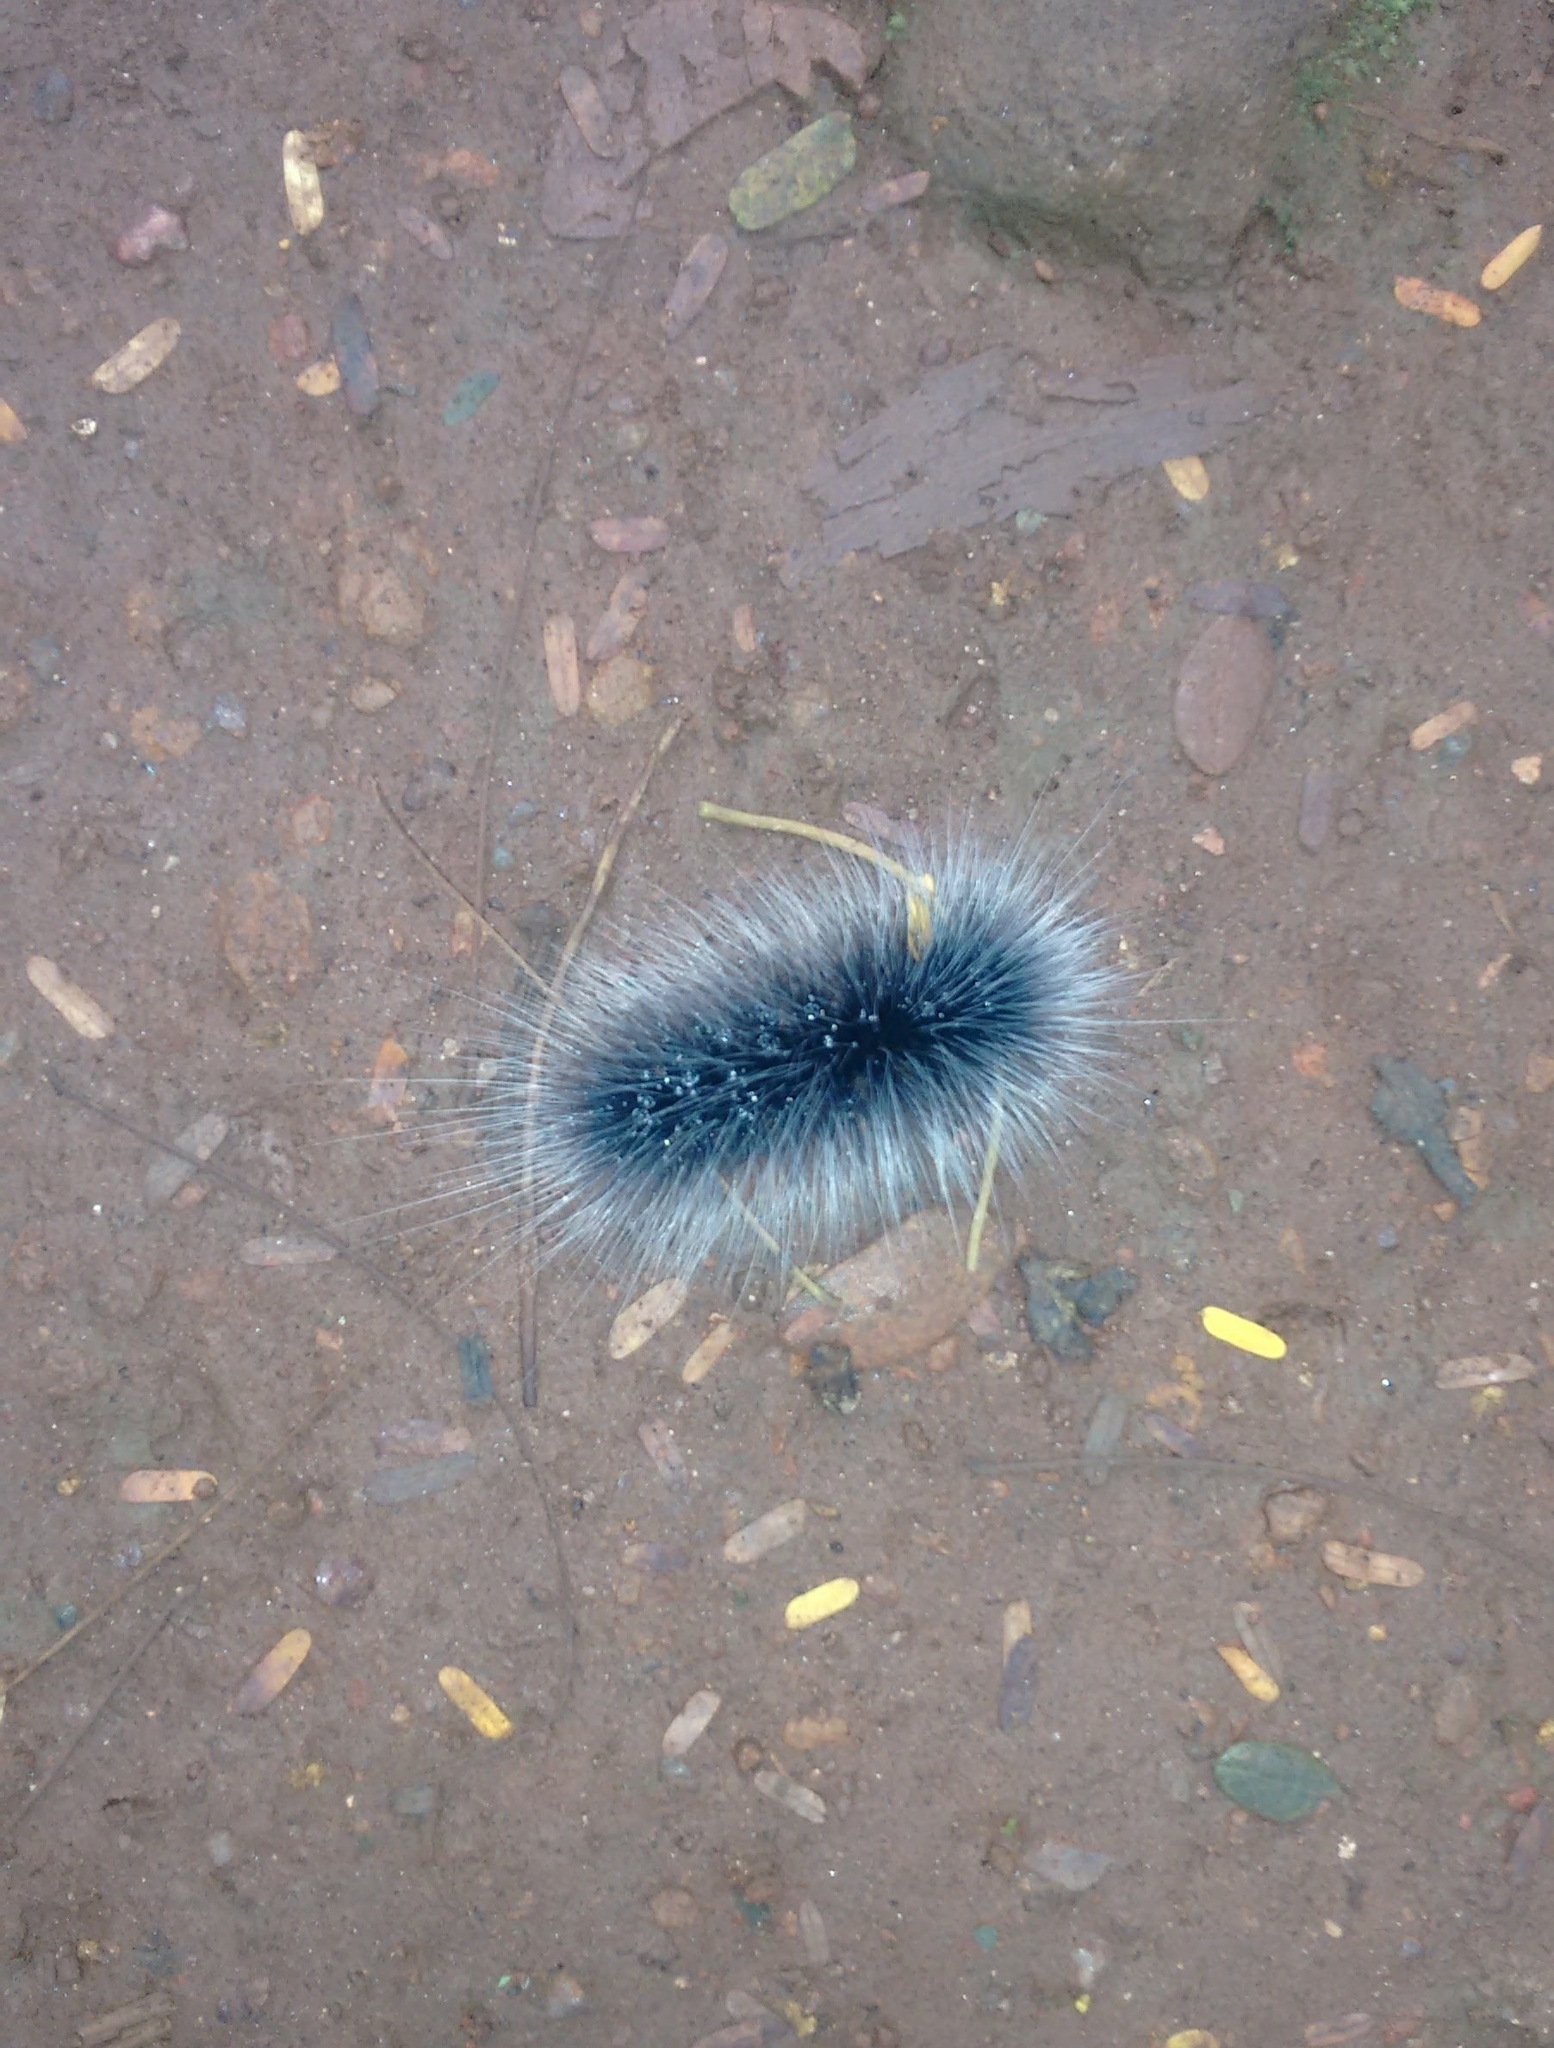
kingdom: Animalia
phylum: Arthropoda
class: Insecta
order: Lepidoptera
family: Erebidae
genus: Macrobrochis
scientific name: Macrobrochis gigas
